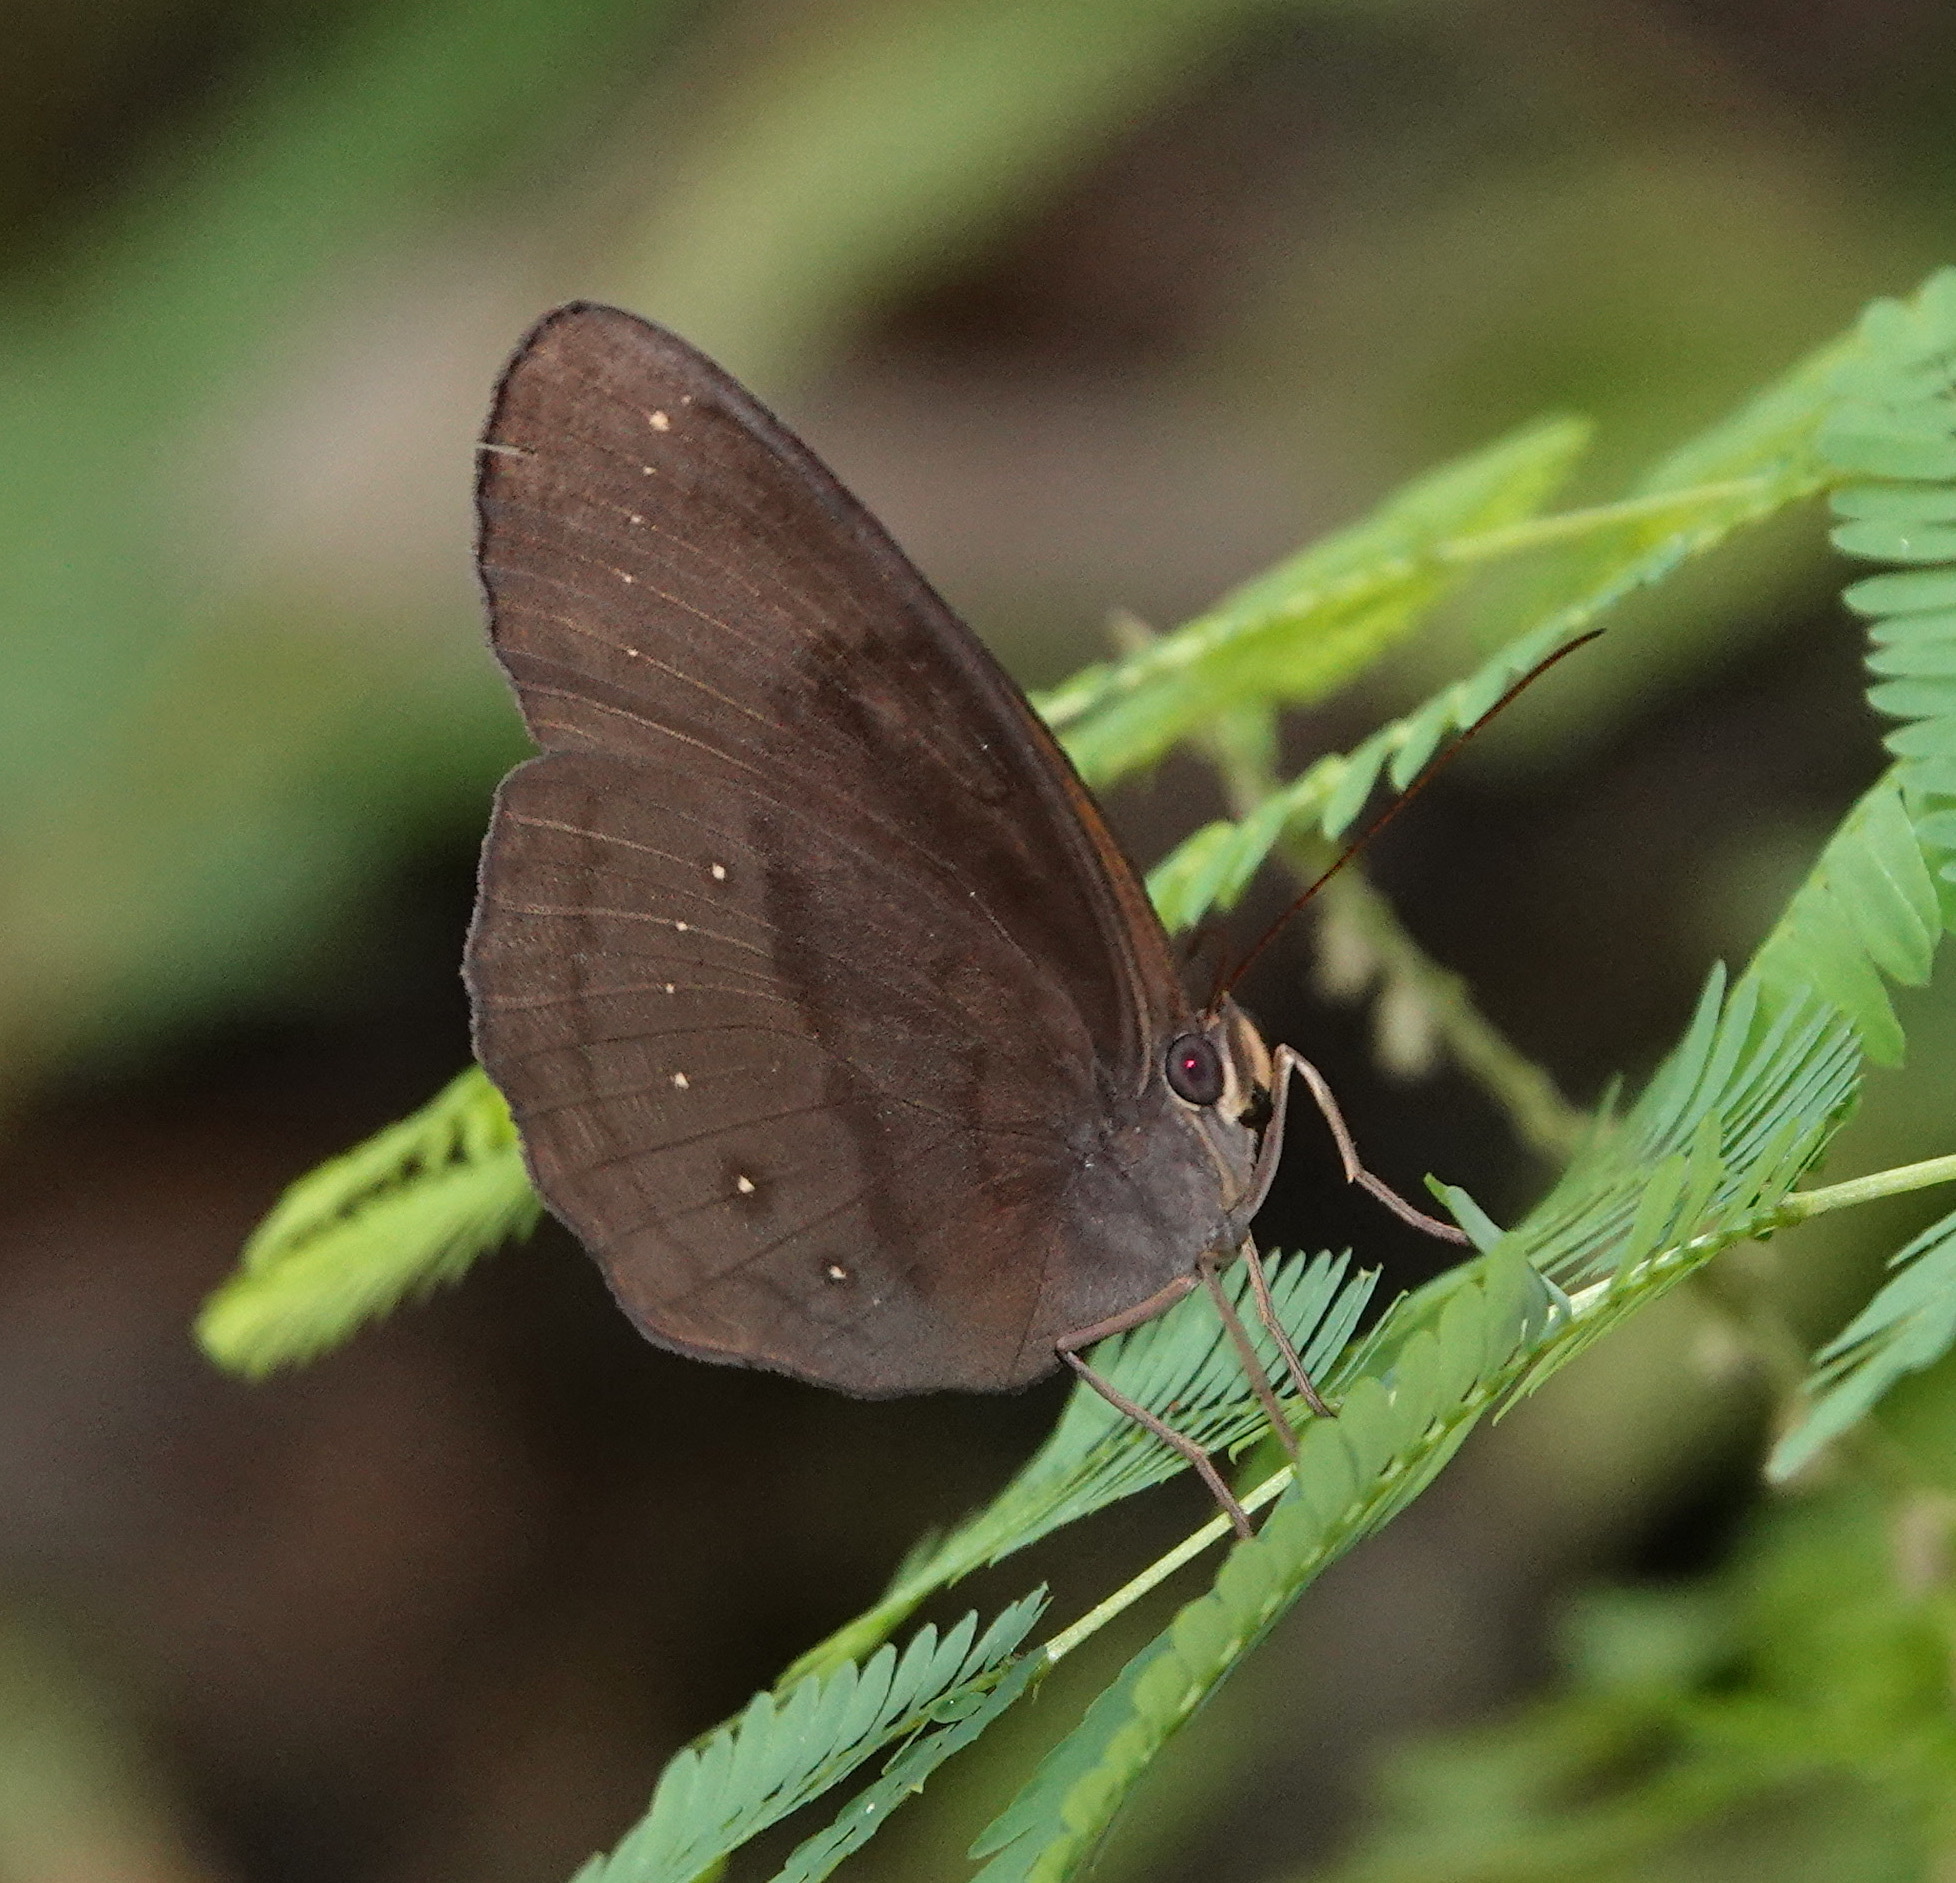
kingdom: Animalia
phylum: Arthropoda
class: Insecta
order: Lepidoptera
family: Nymphalidae
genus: Faunis
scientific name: Faunis canens
